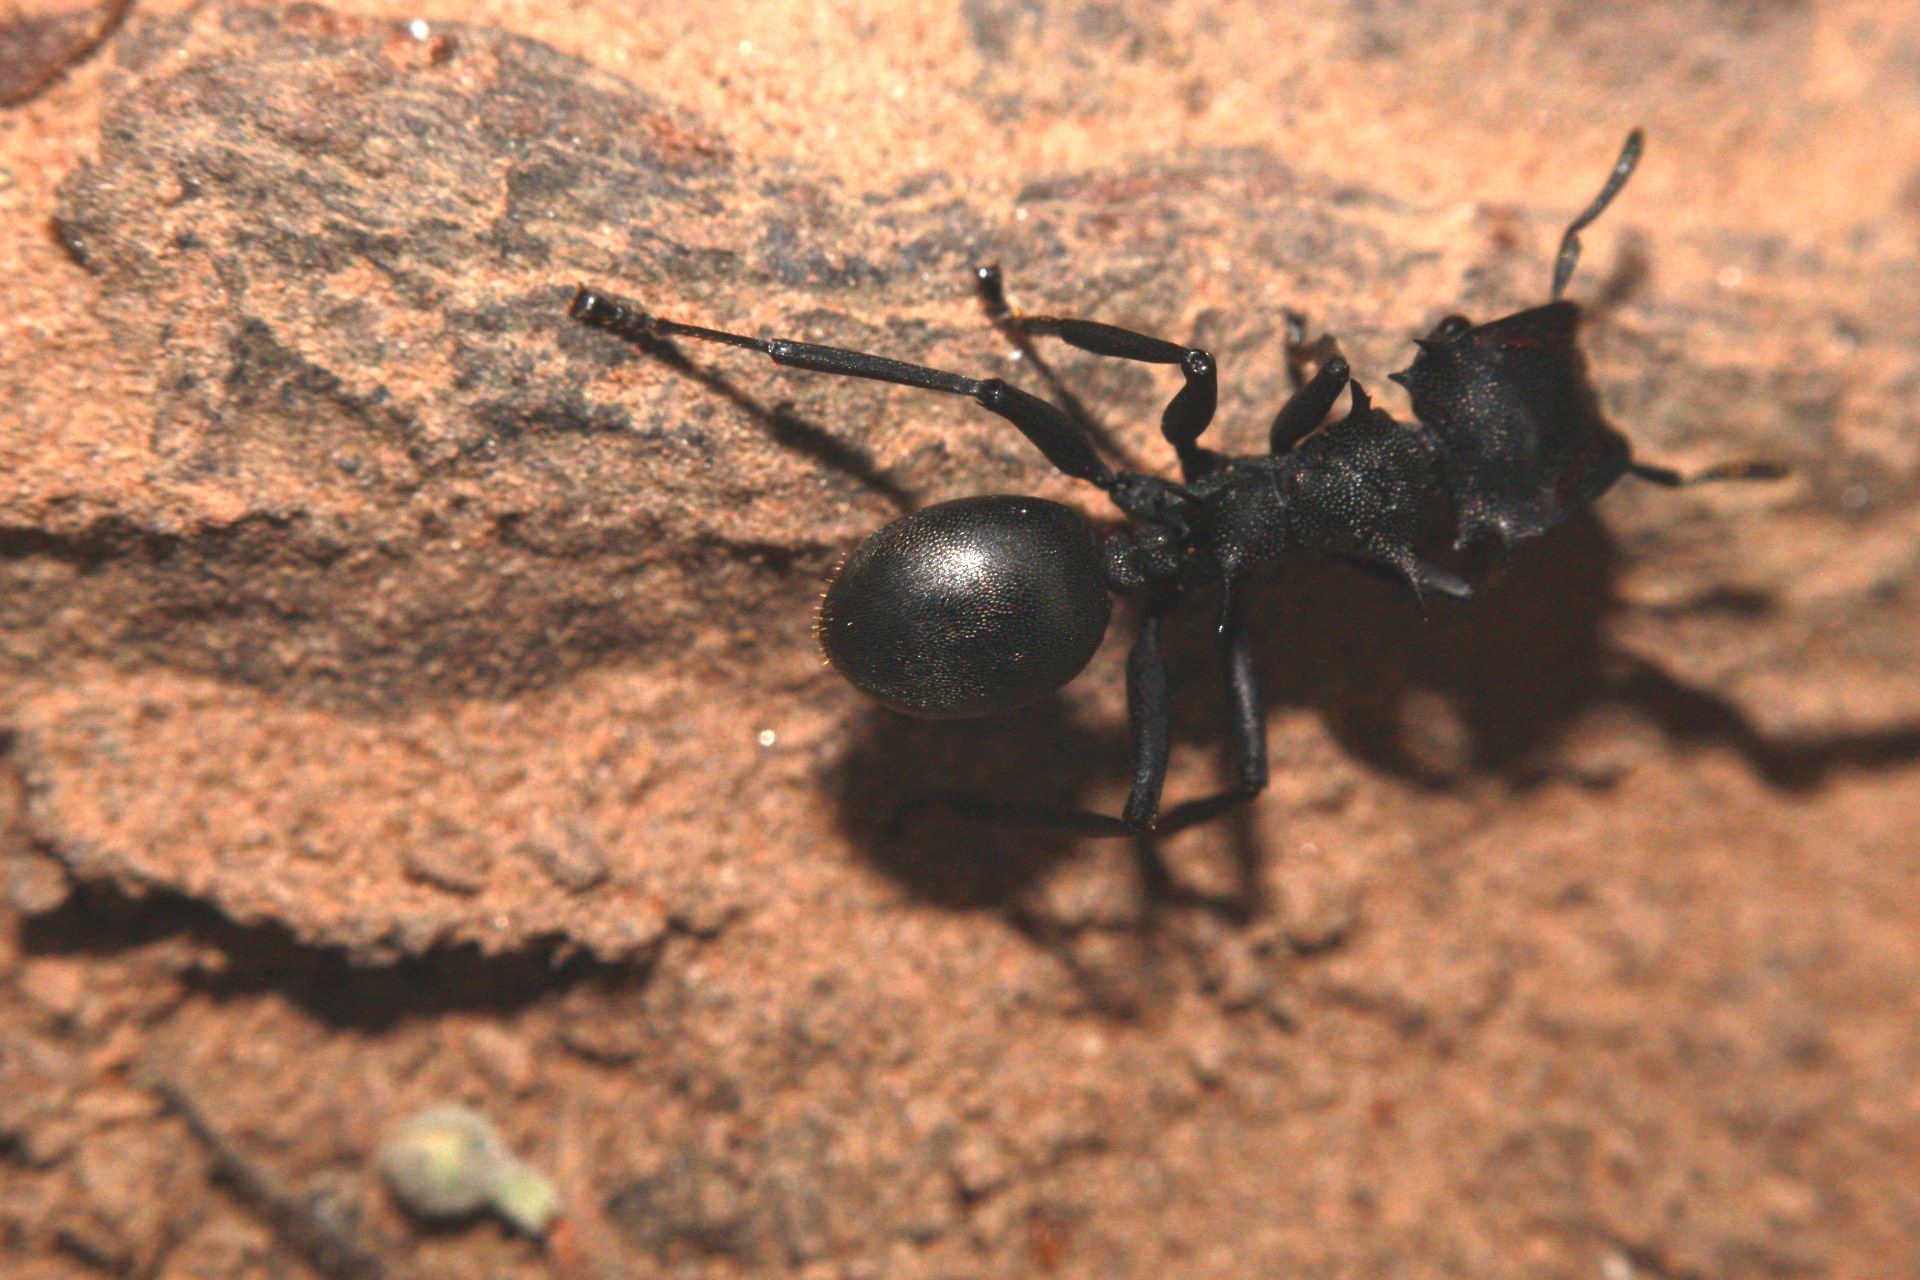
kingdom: Animalia
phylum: Arthropoda
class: Insecta
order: Hymenoptera
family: Formicidae
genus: Cephalotes
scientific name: Cephalotes atratus
